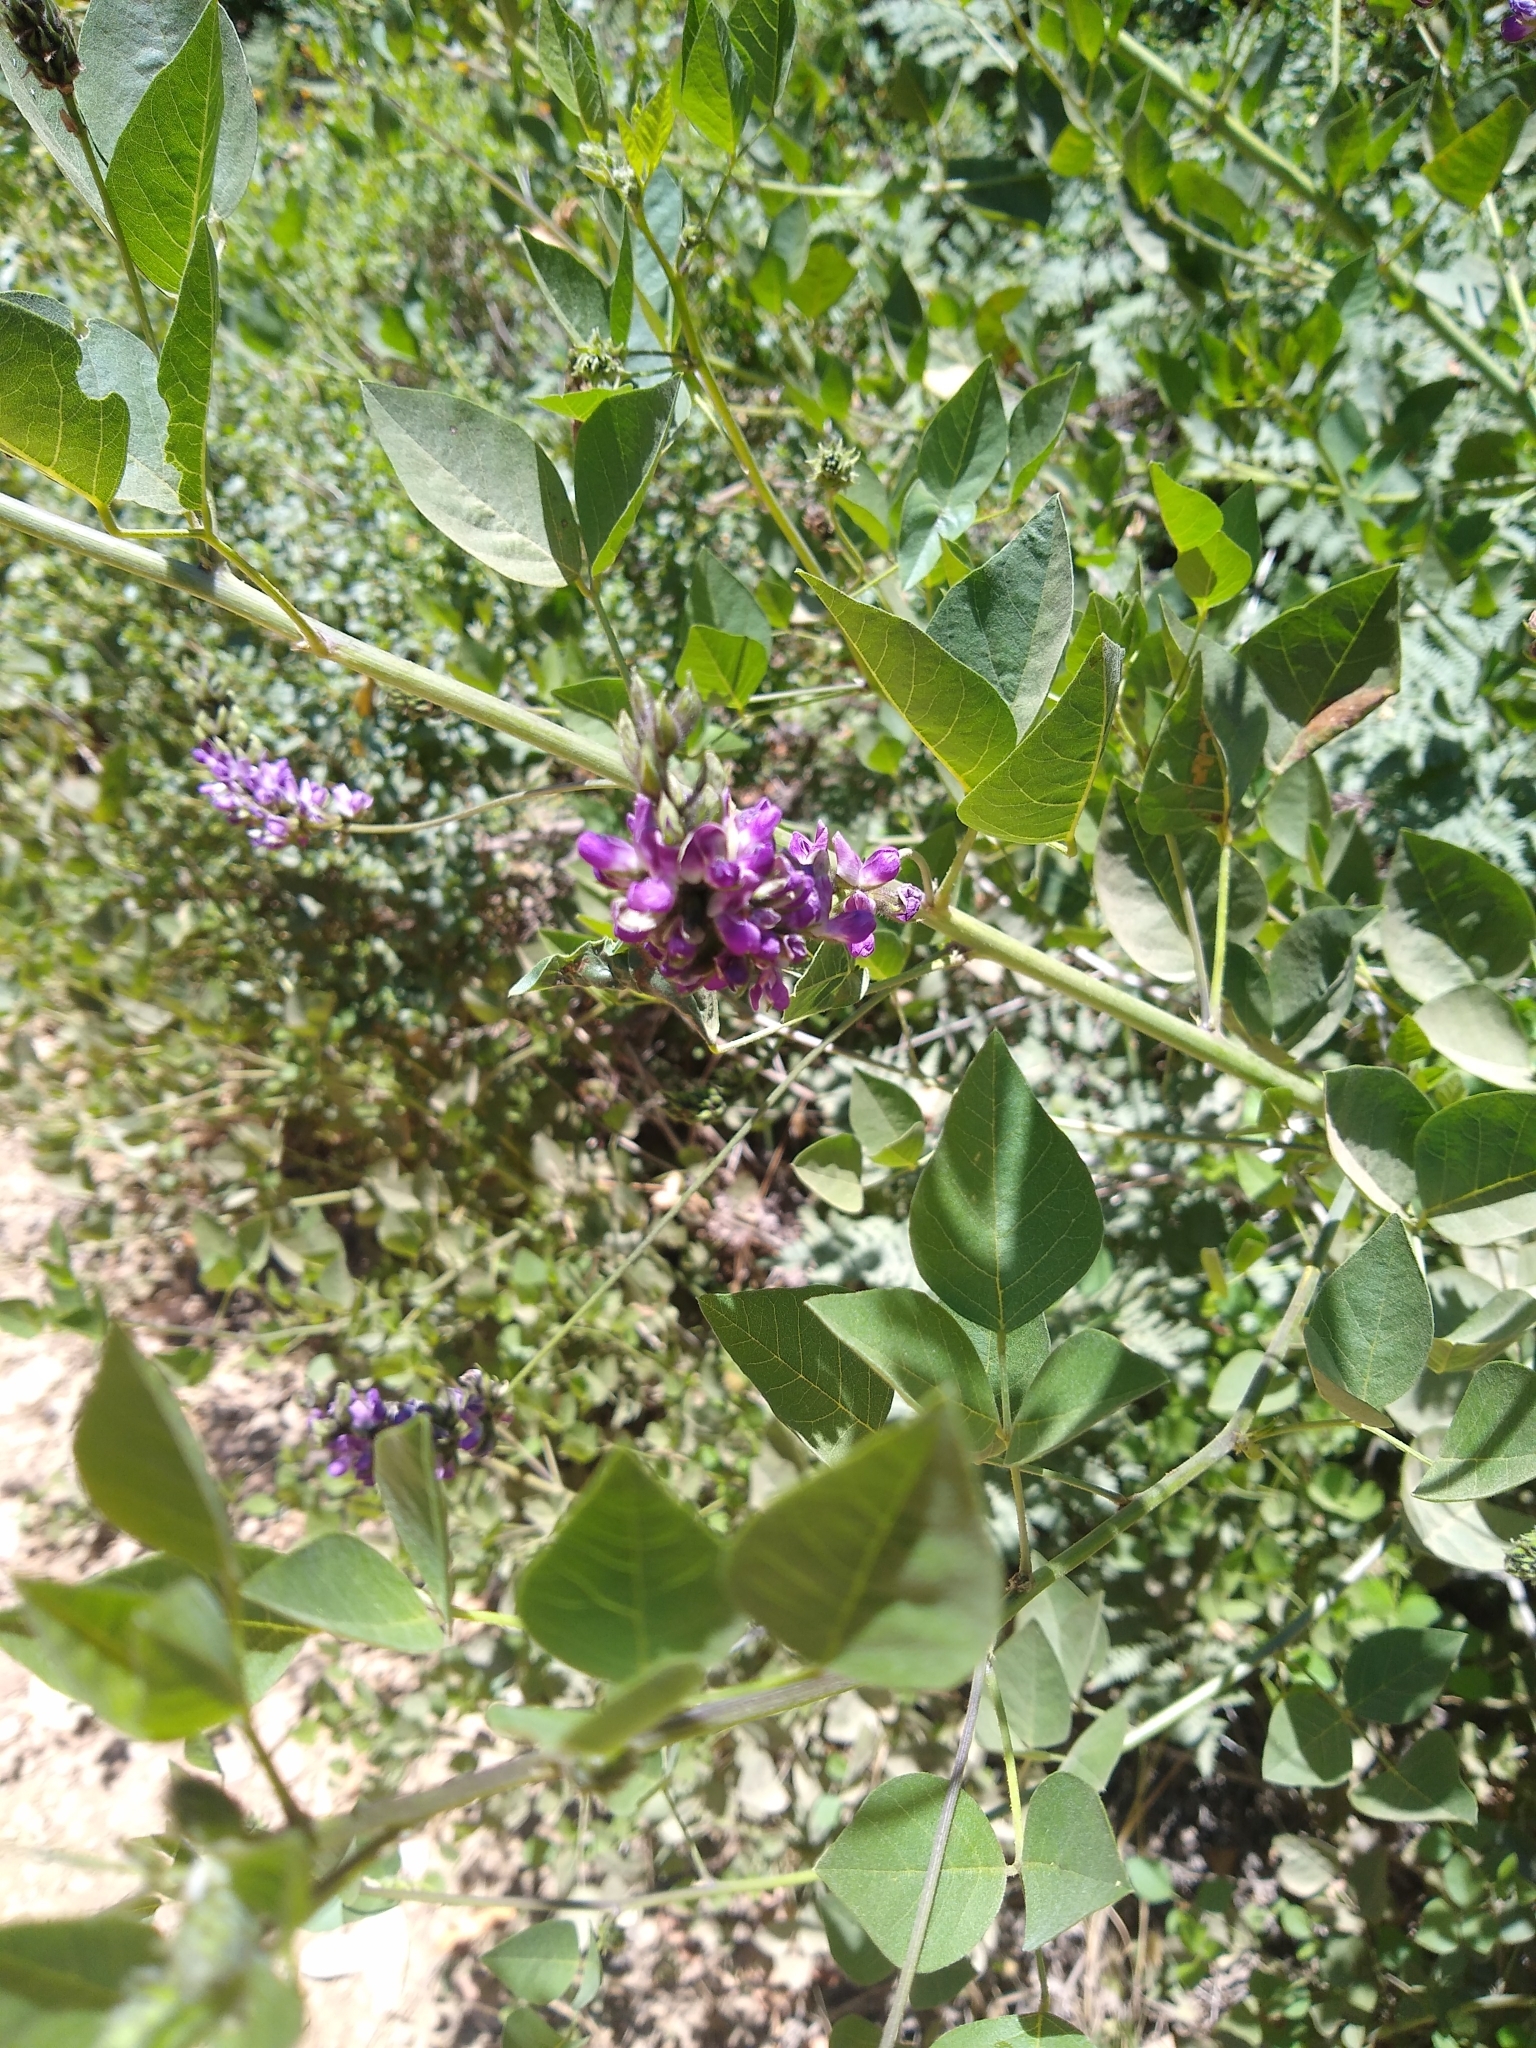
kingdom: Plantae
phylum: Tracheophyta
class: Magnoliopsida
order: Fabales
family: Fabaceae
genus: Hoita
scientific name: Hoita macrostachya
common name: Leatherroot
